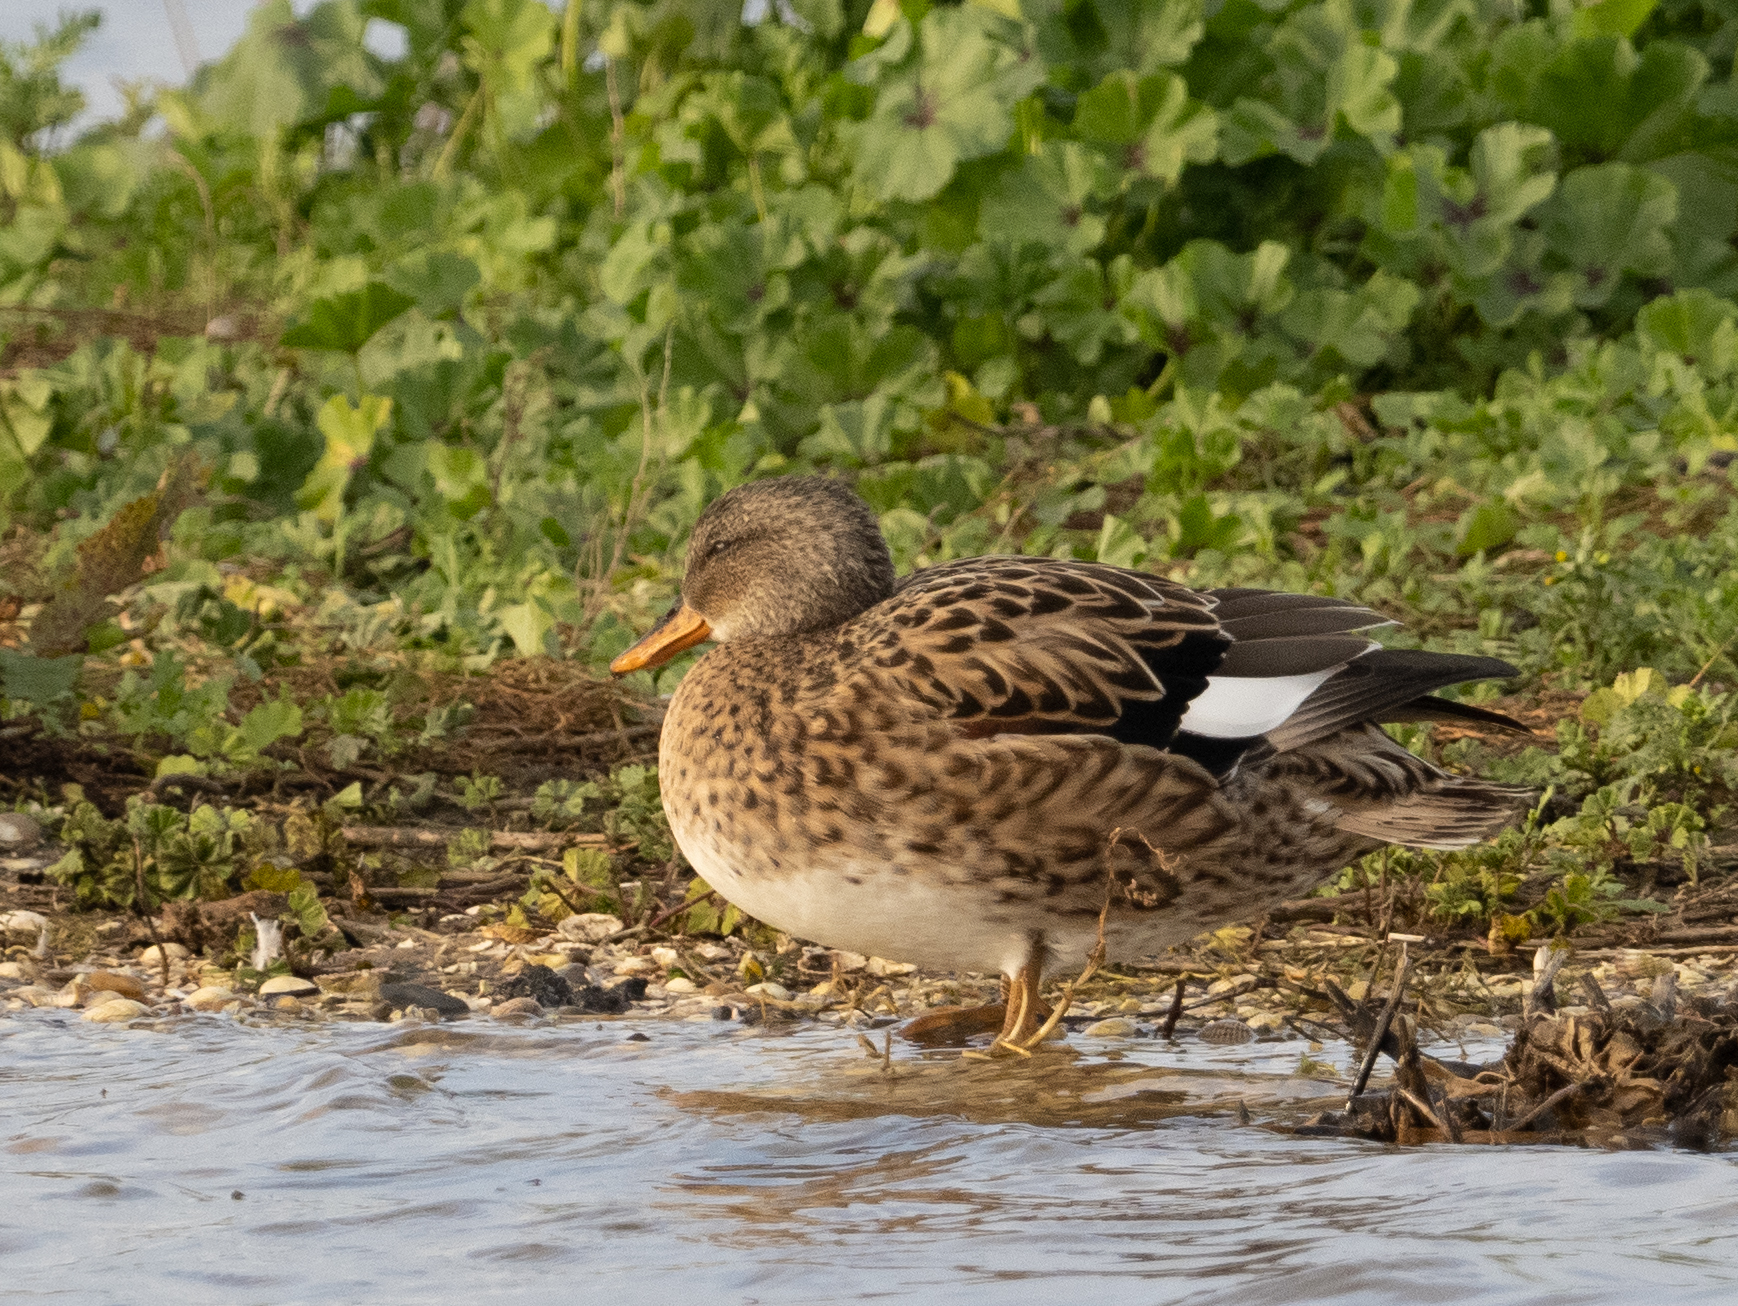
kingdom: Animalia
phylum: Chordata
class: Aves
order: Anseriformes
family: Anatidae
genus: Mareca
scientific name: Mareca strepera
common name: Gadwall
